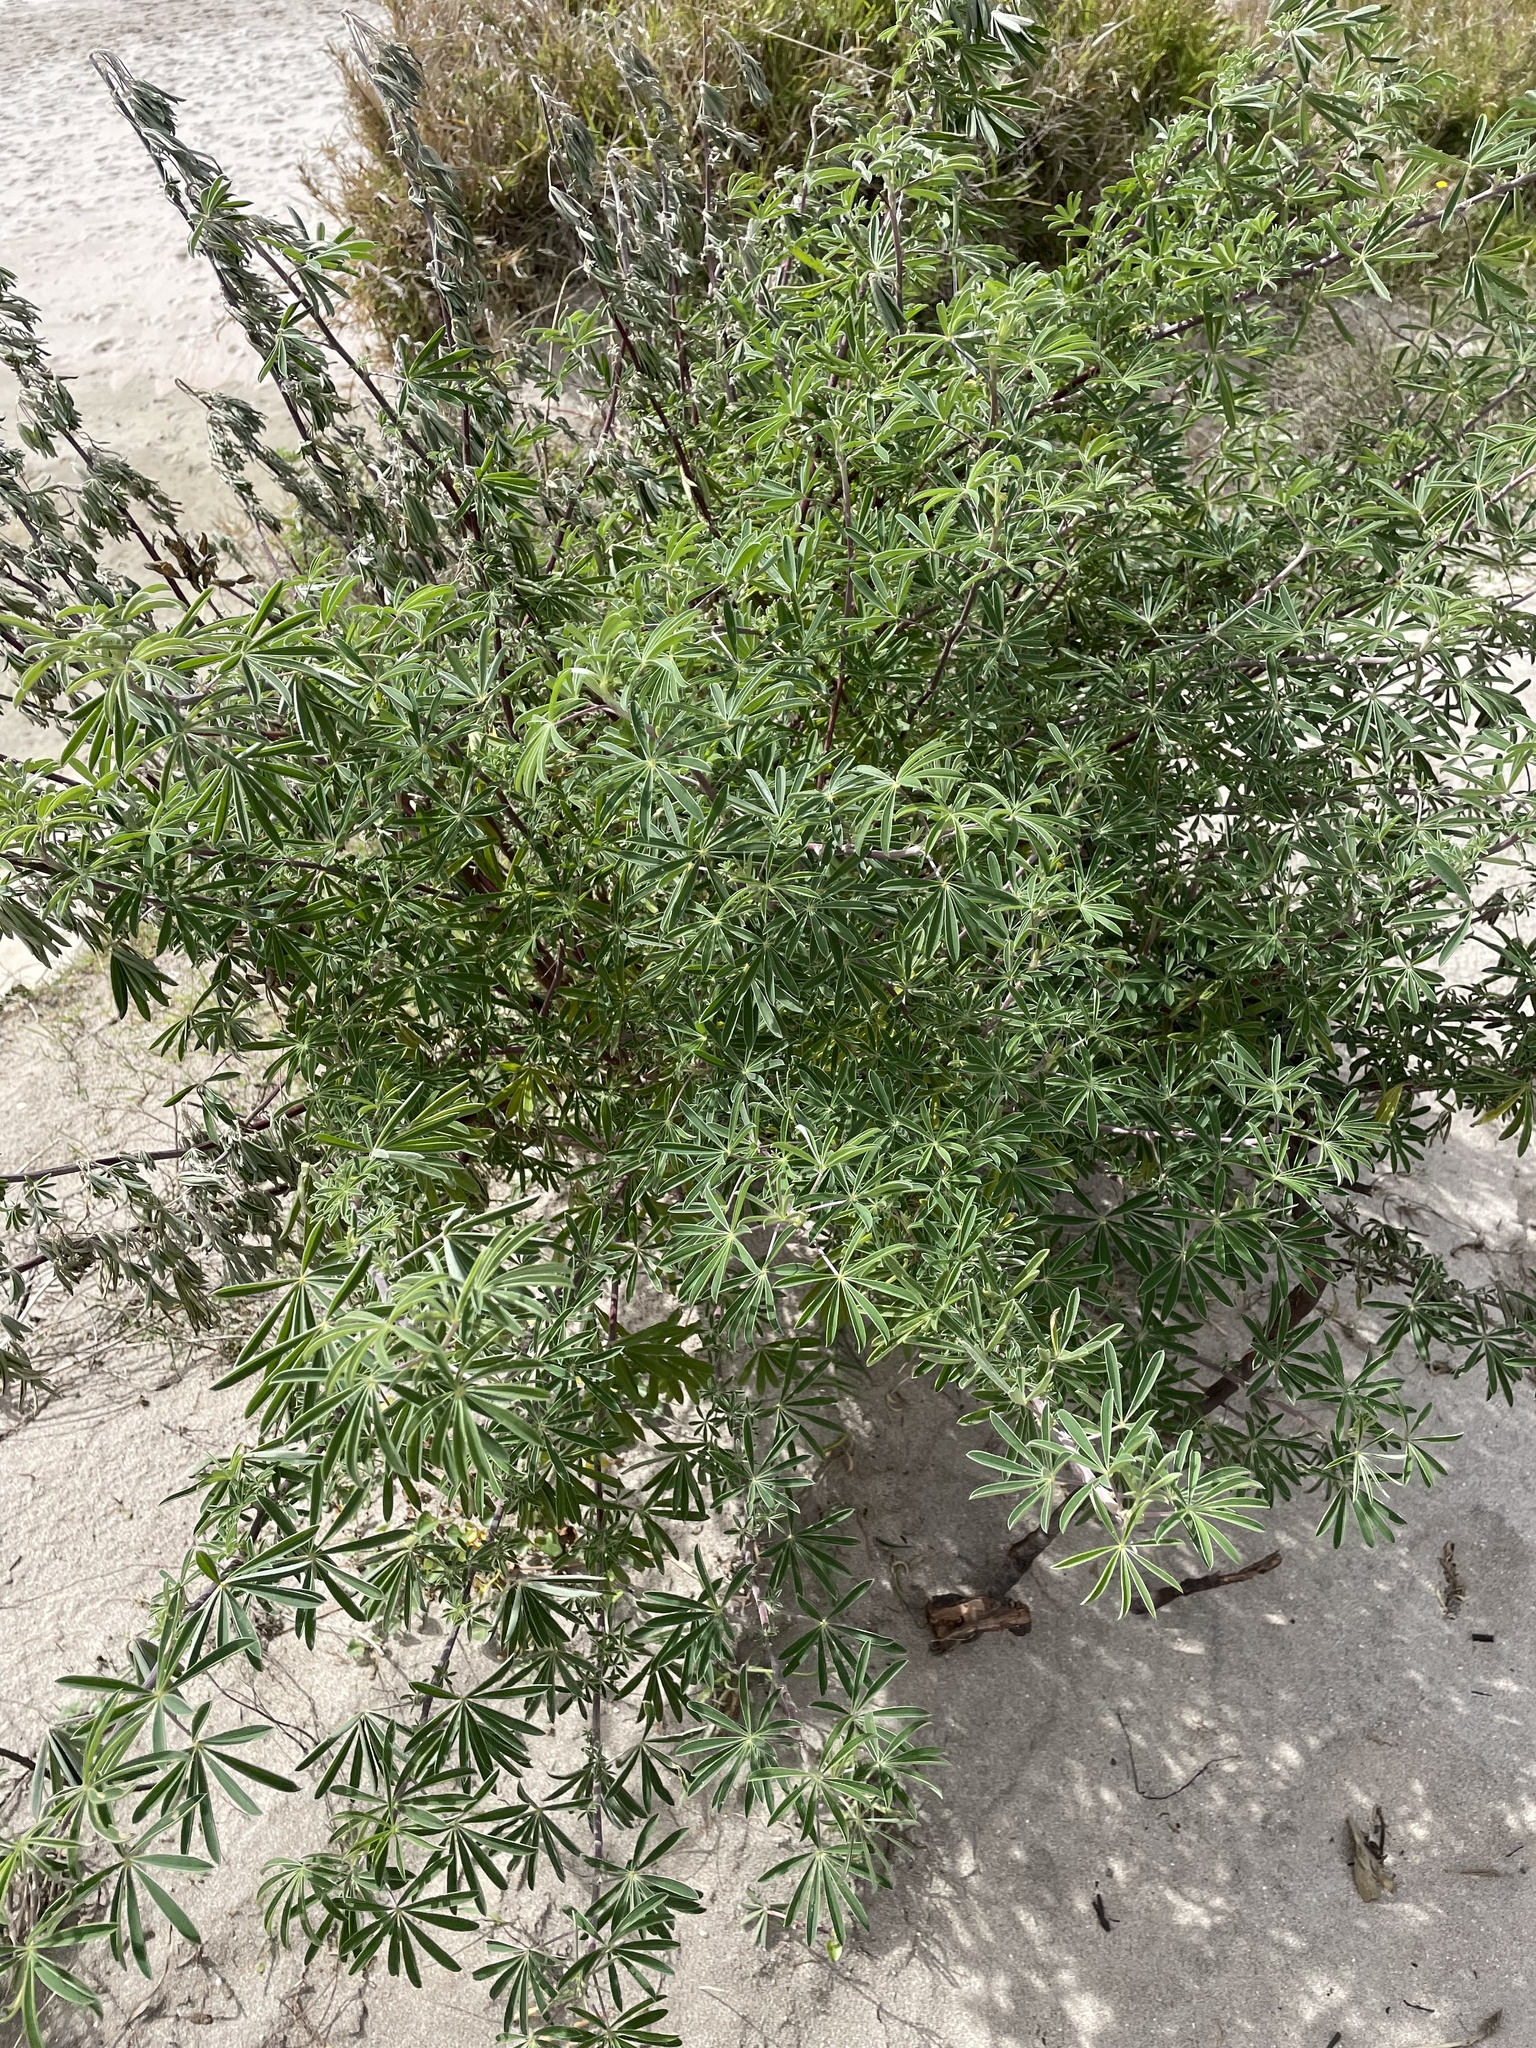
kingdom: Plantae
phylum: Tracheophyta
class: Magnoliopsida
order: Fabales
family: Fabaceae
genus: Lupinus
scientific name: Lupinus arboreus
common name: Yellow bush lupine
